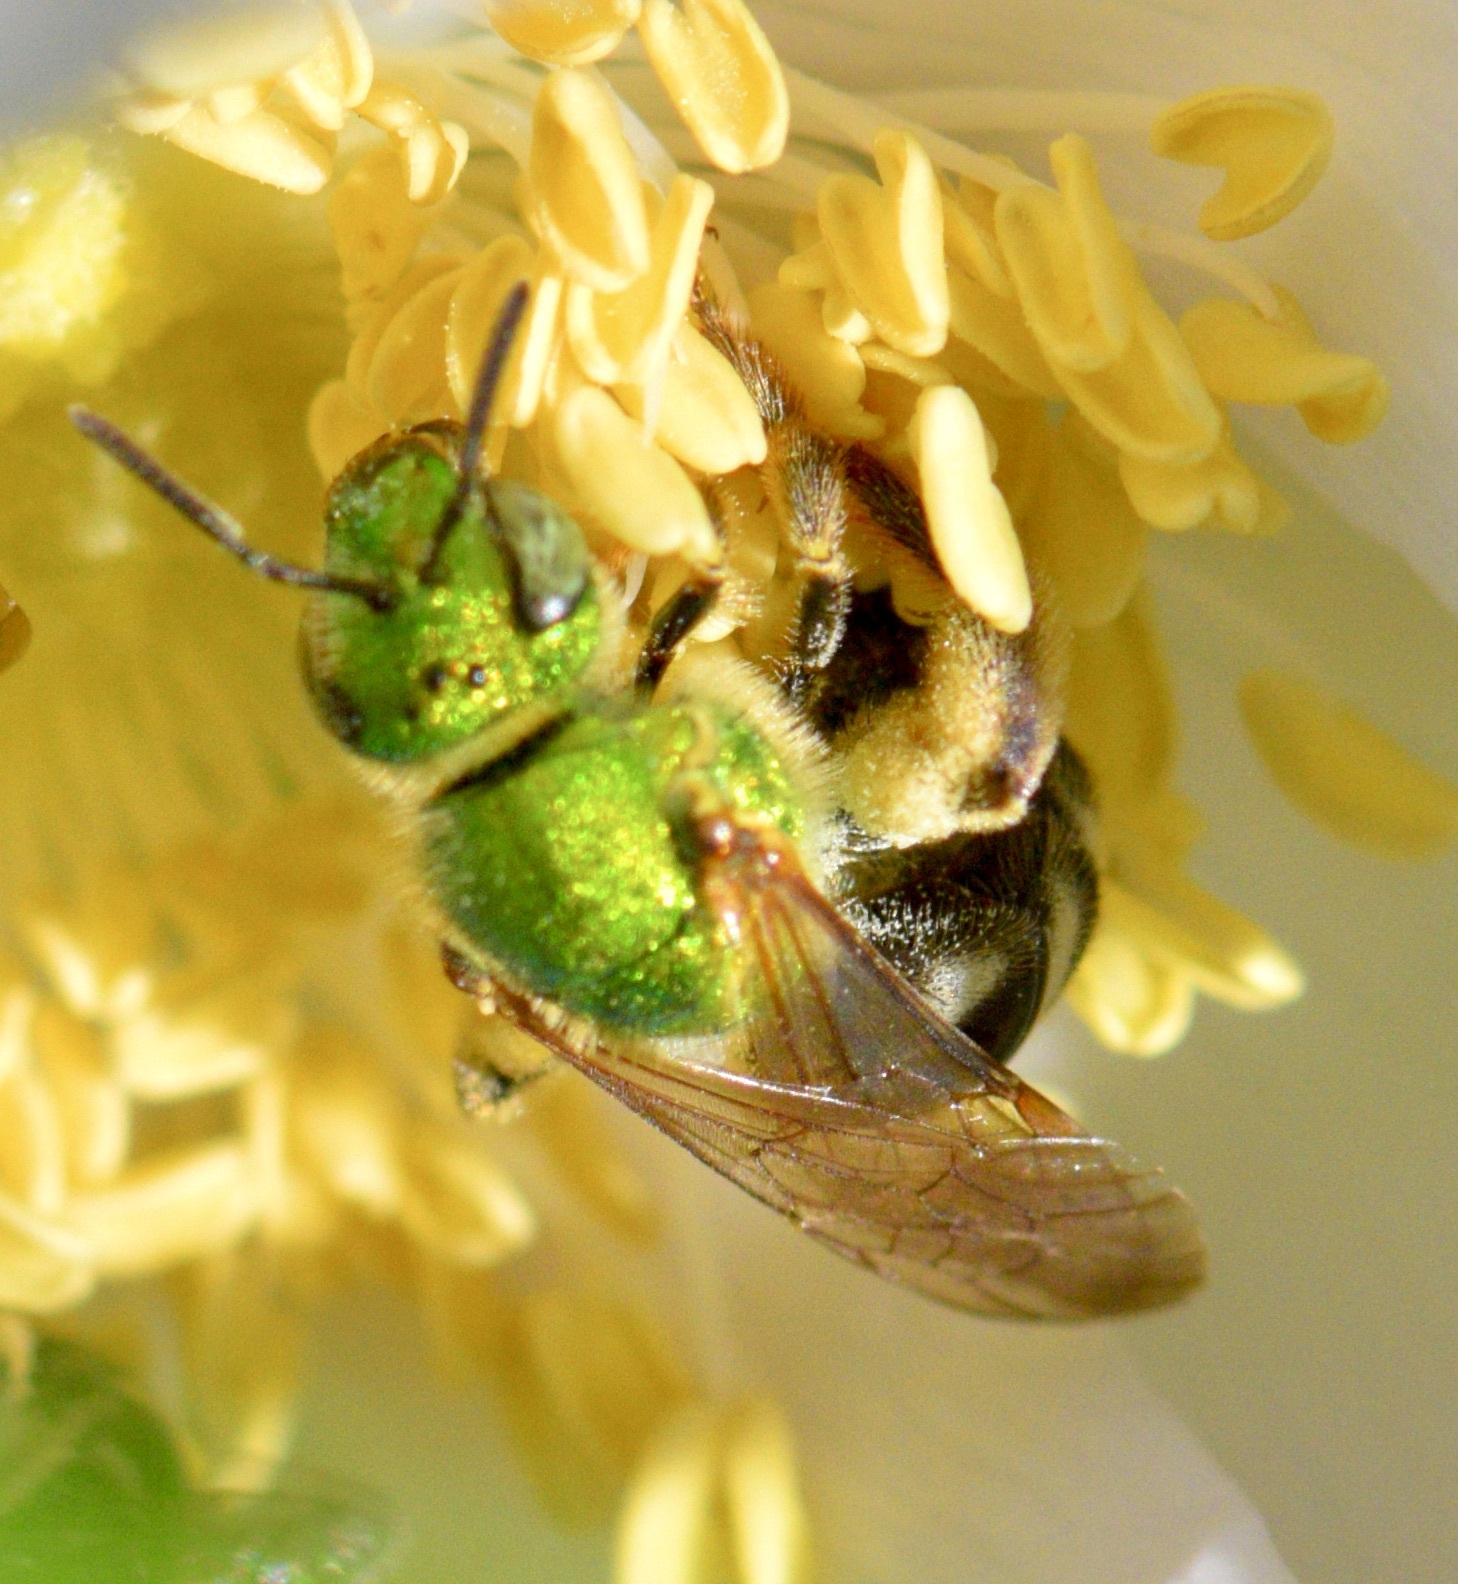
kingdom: Animalia
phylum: Arthropoda
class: Insecta
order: Hymenoptera
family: Halictidae
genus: Agapostemon
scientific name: Agapostemon virescens
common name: Bicolored striped sweat bee
